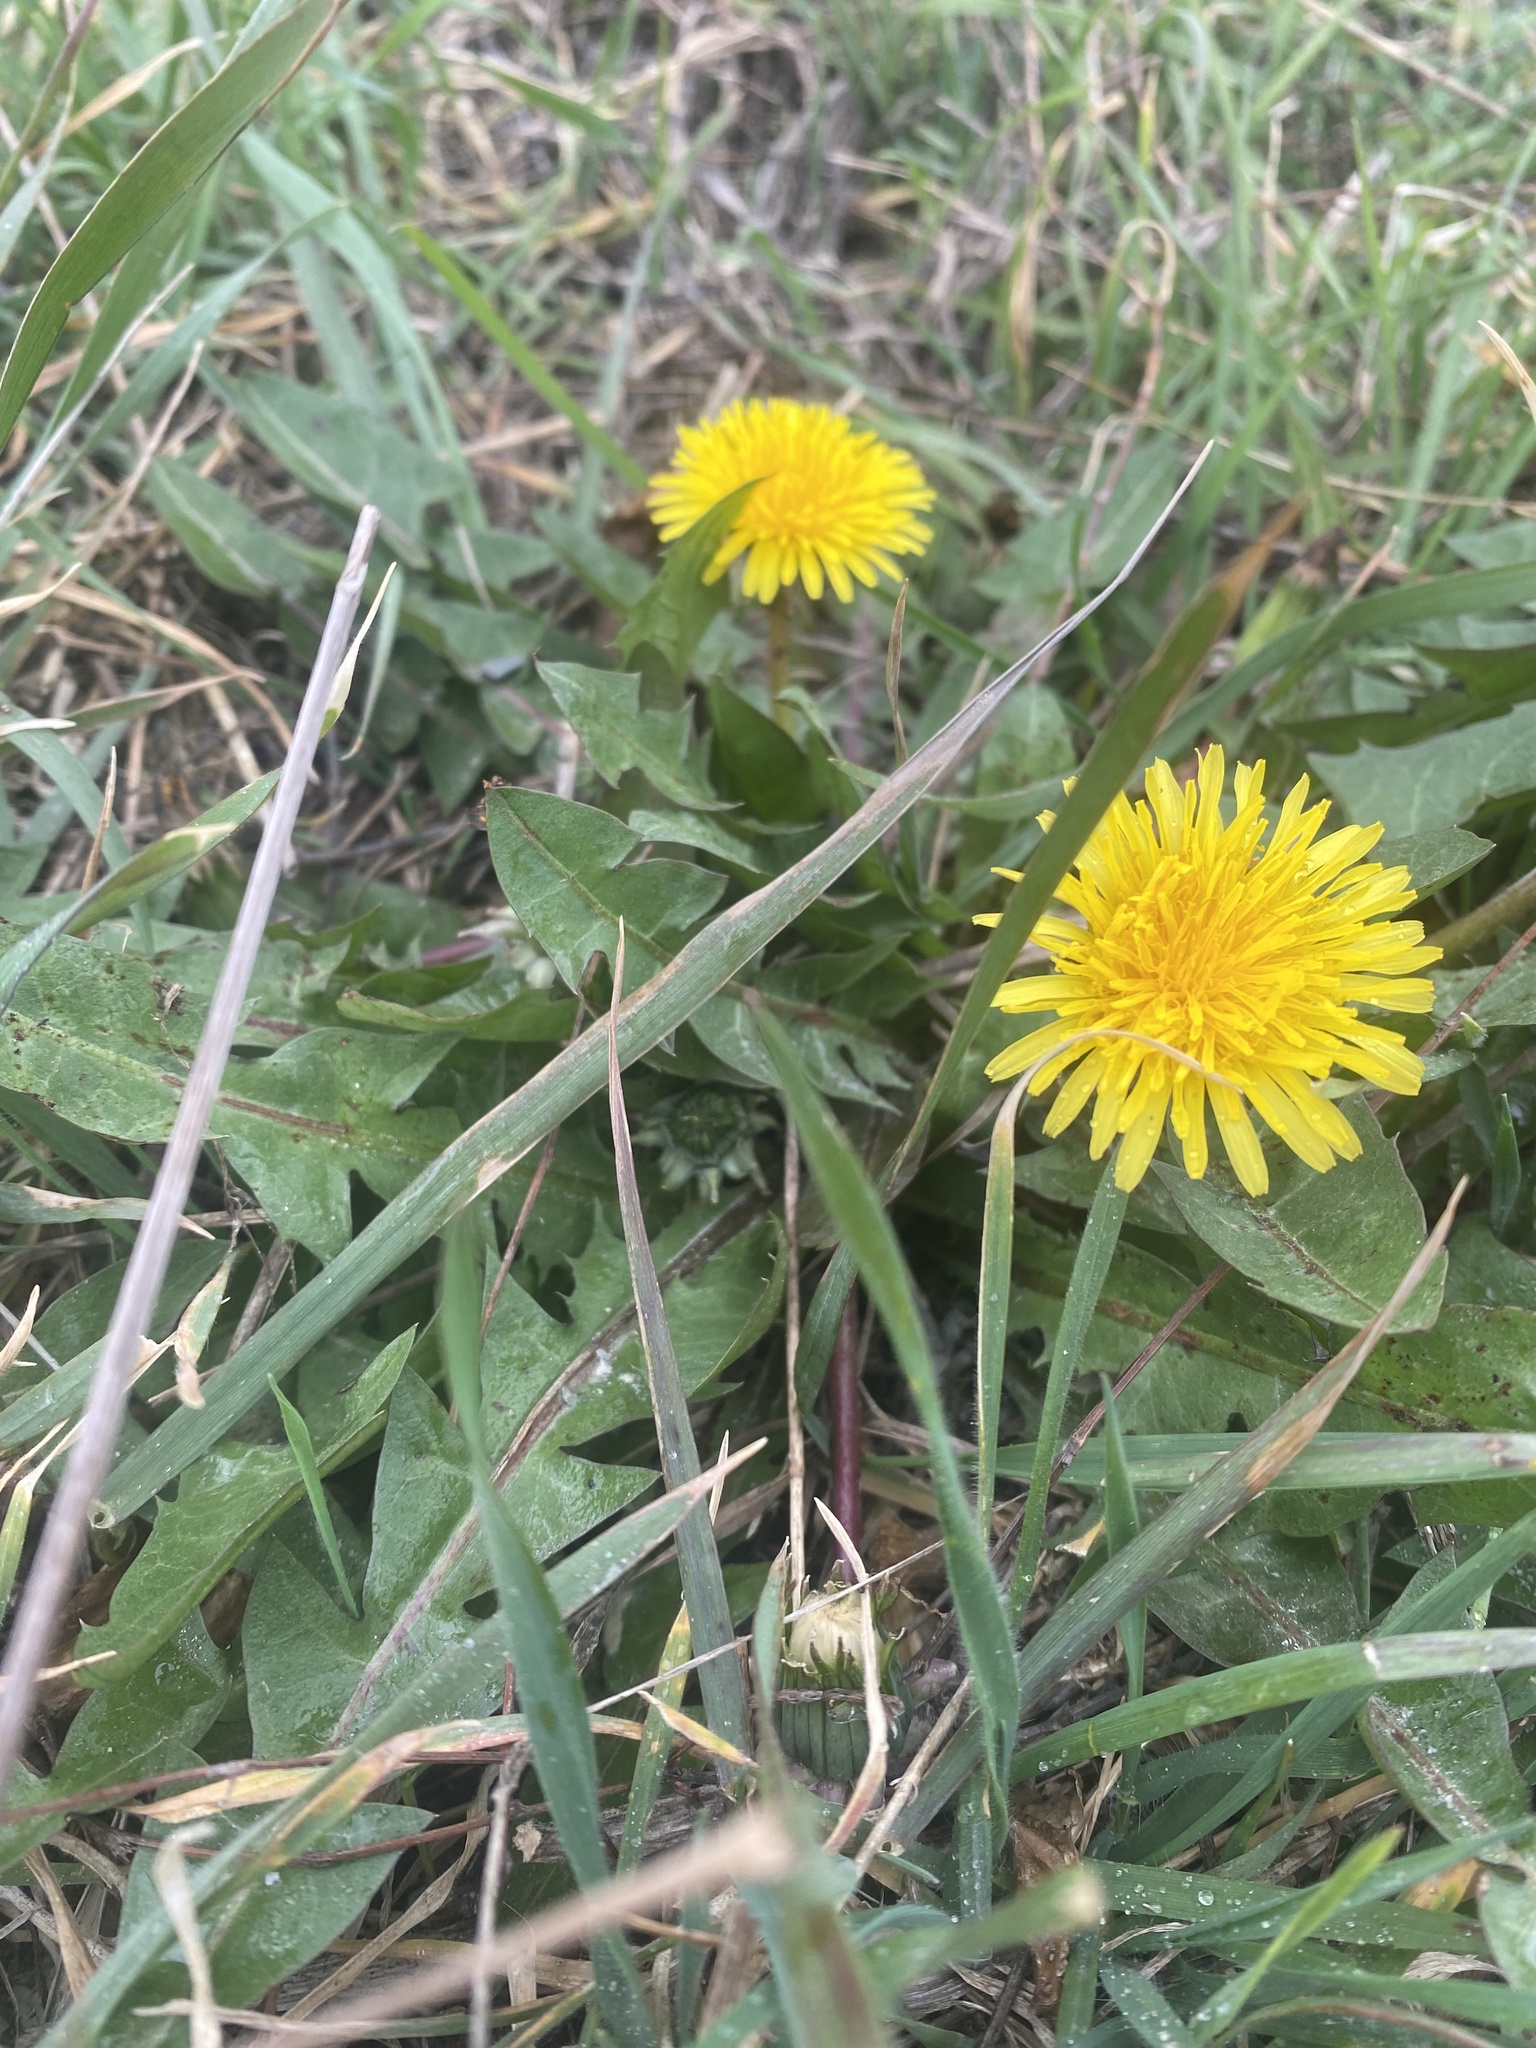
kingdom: Plantae
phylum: Tracheophyta
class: Magnoliopsida
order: Asterales
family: Asteraceae
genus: Taraxacum
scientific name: Taraxacum officinale
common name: Common dandelion
